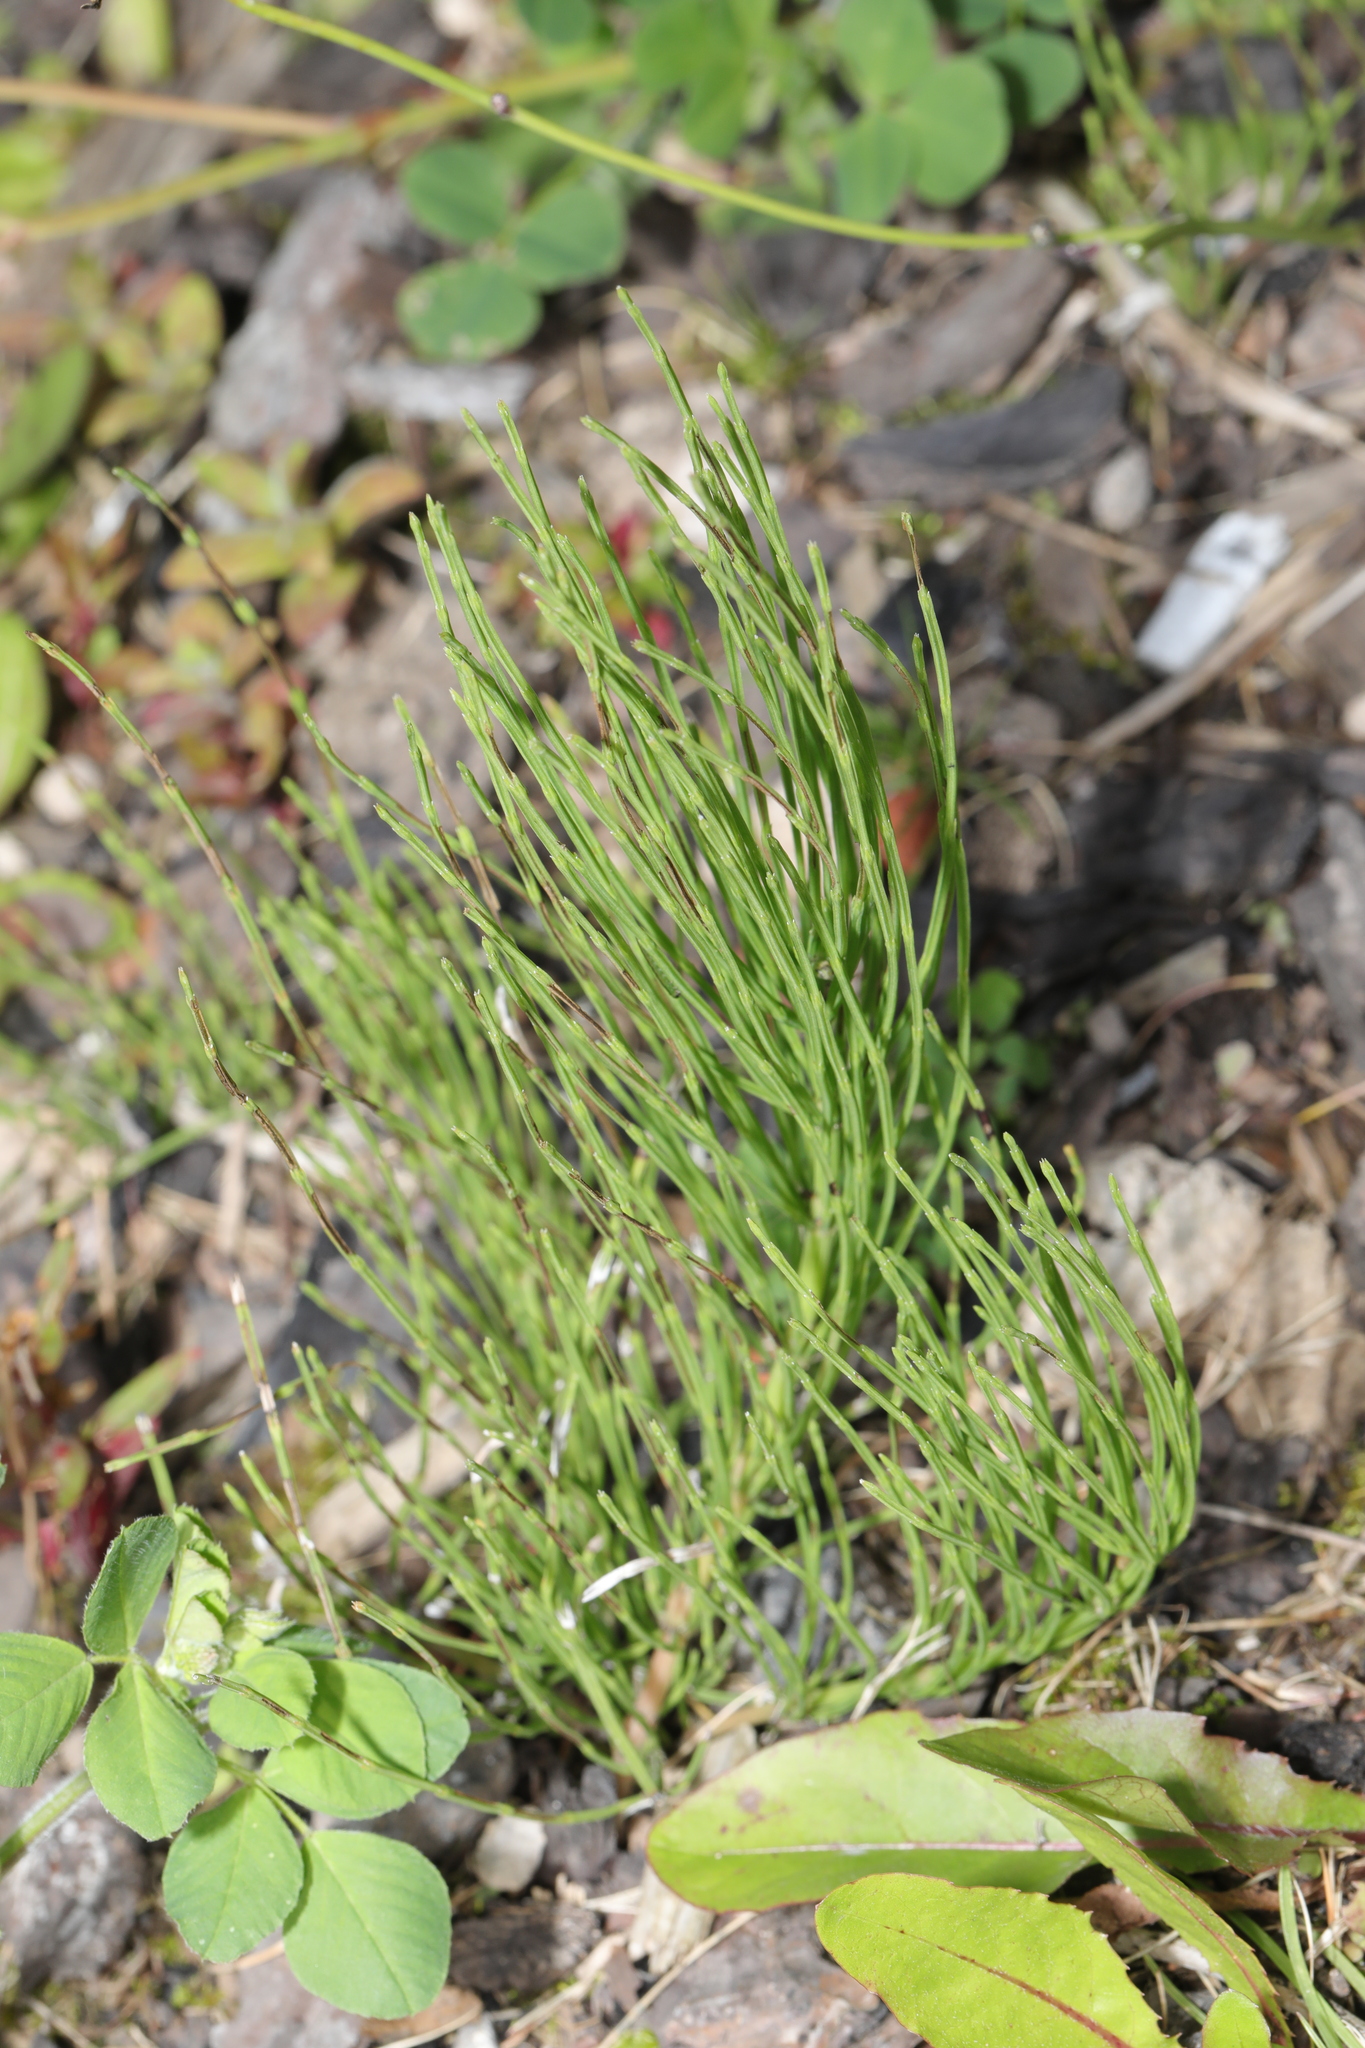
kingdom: Plantae
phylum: Tracheophyta
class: Polypodiopsida
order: Equisetales
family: Equisetaceae
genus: Equisetum
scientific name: Equisetum arvense
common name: Field horsetail
